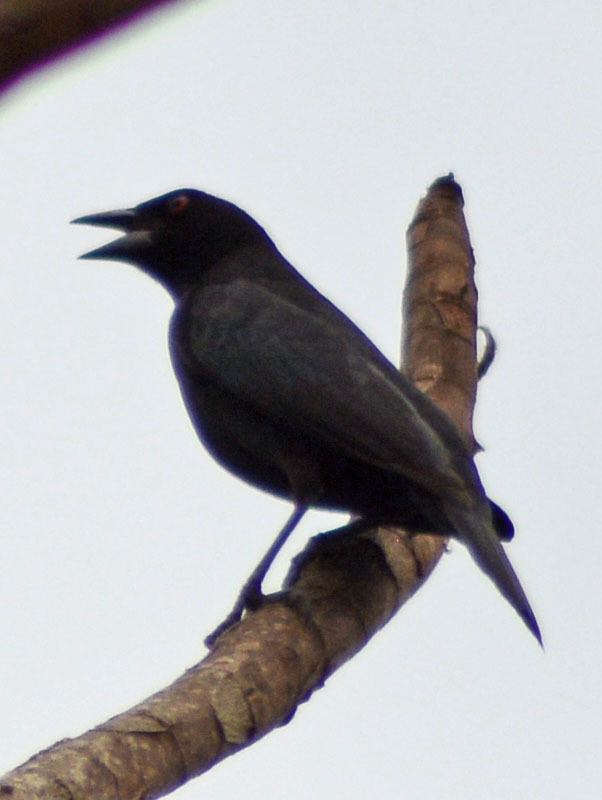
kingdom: Animalia
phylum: Chordata
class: Aves
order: Passeriformes
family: Icteridae
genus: Molothrus
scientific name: Molothrus aeneus
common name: Bronzed cowbird
